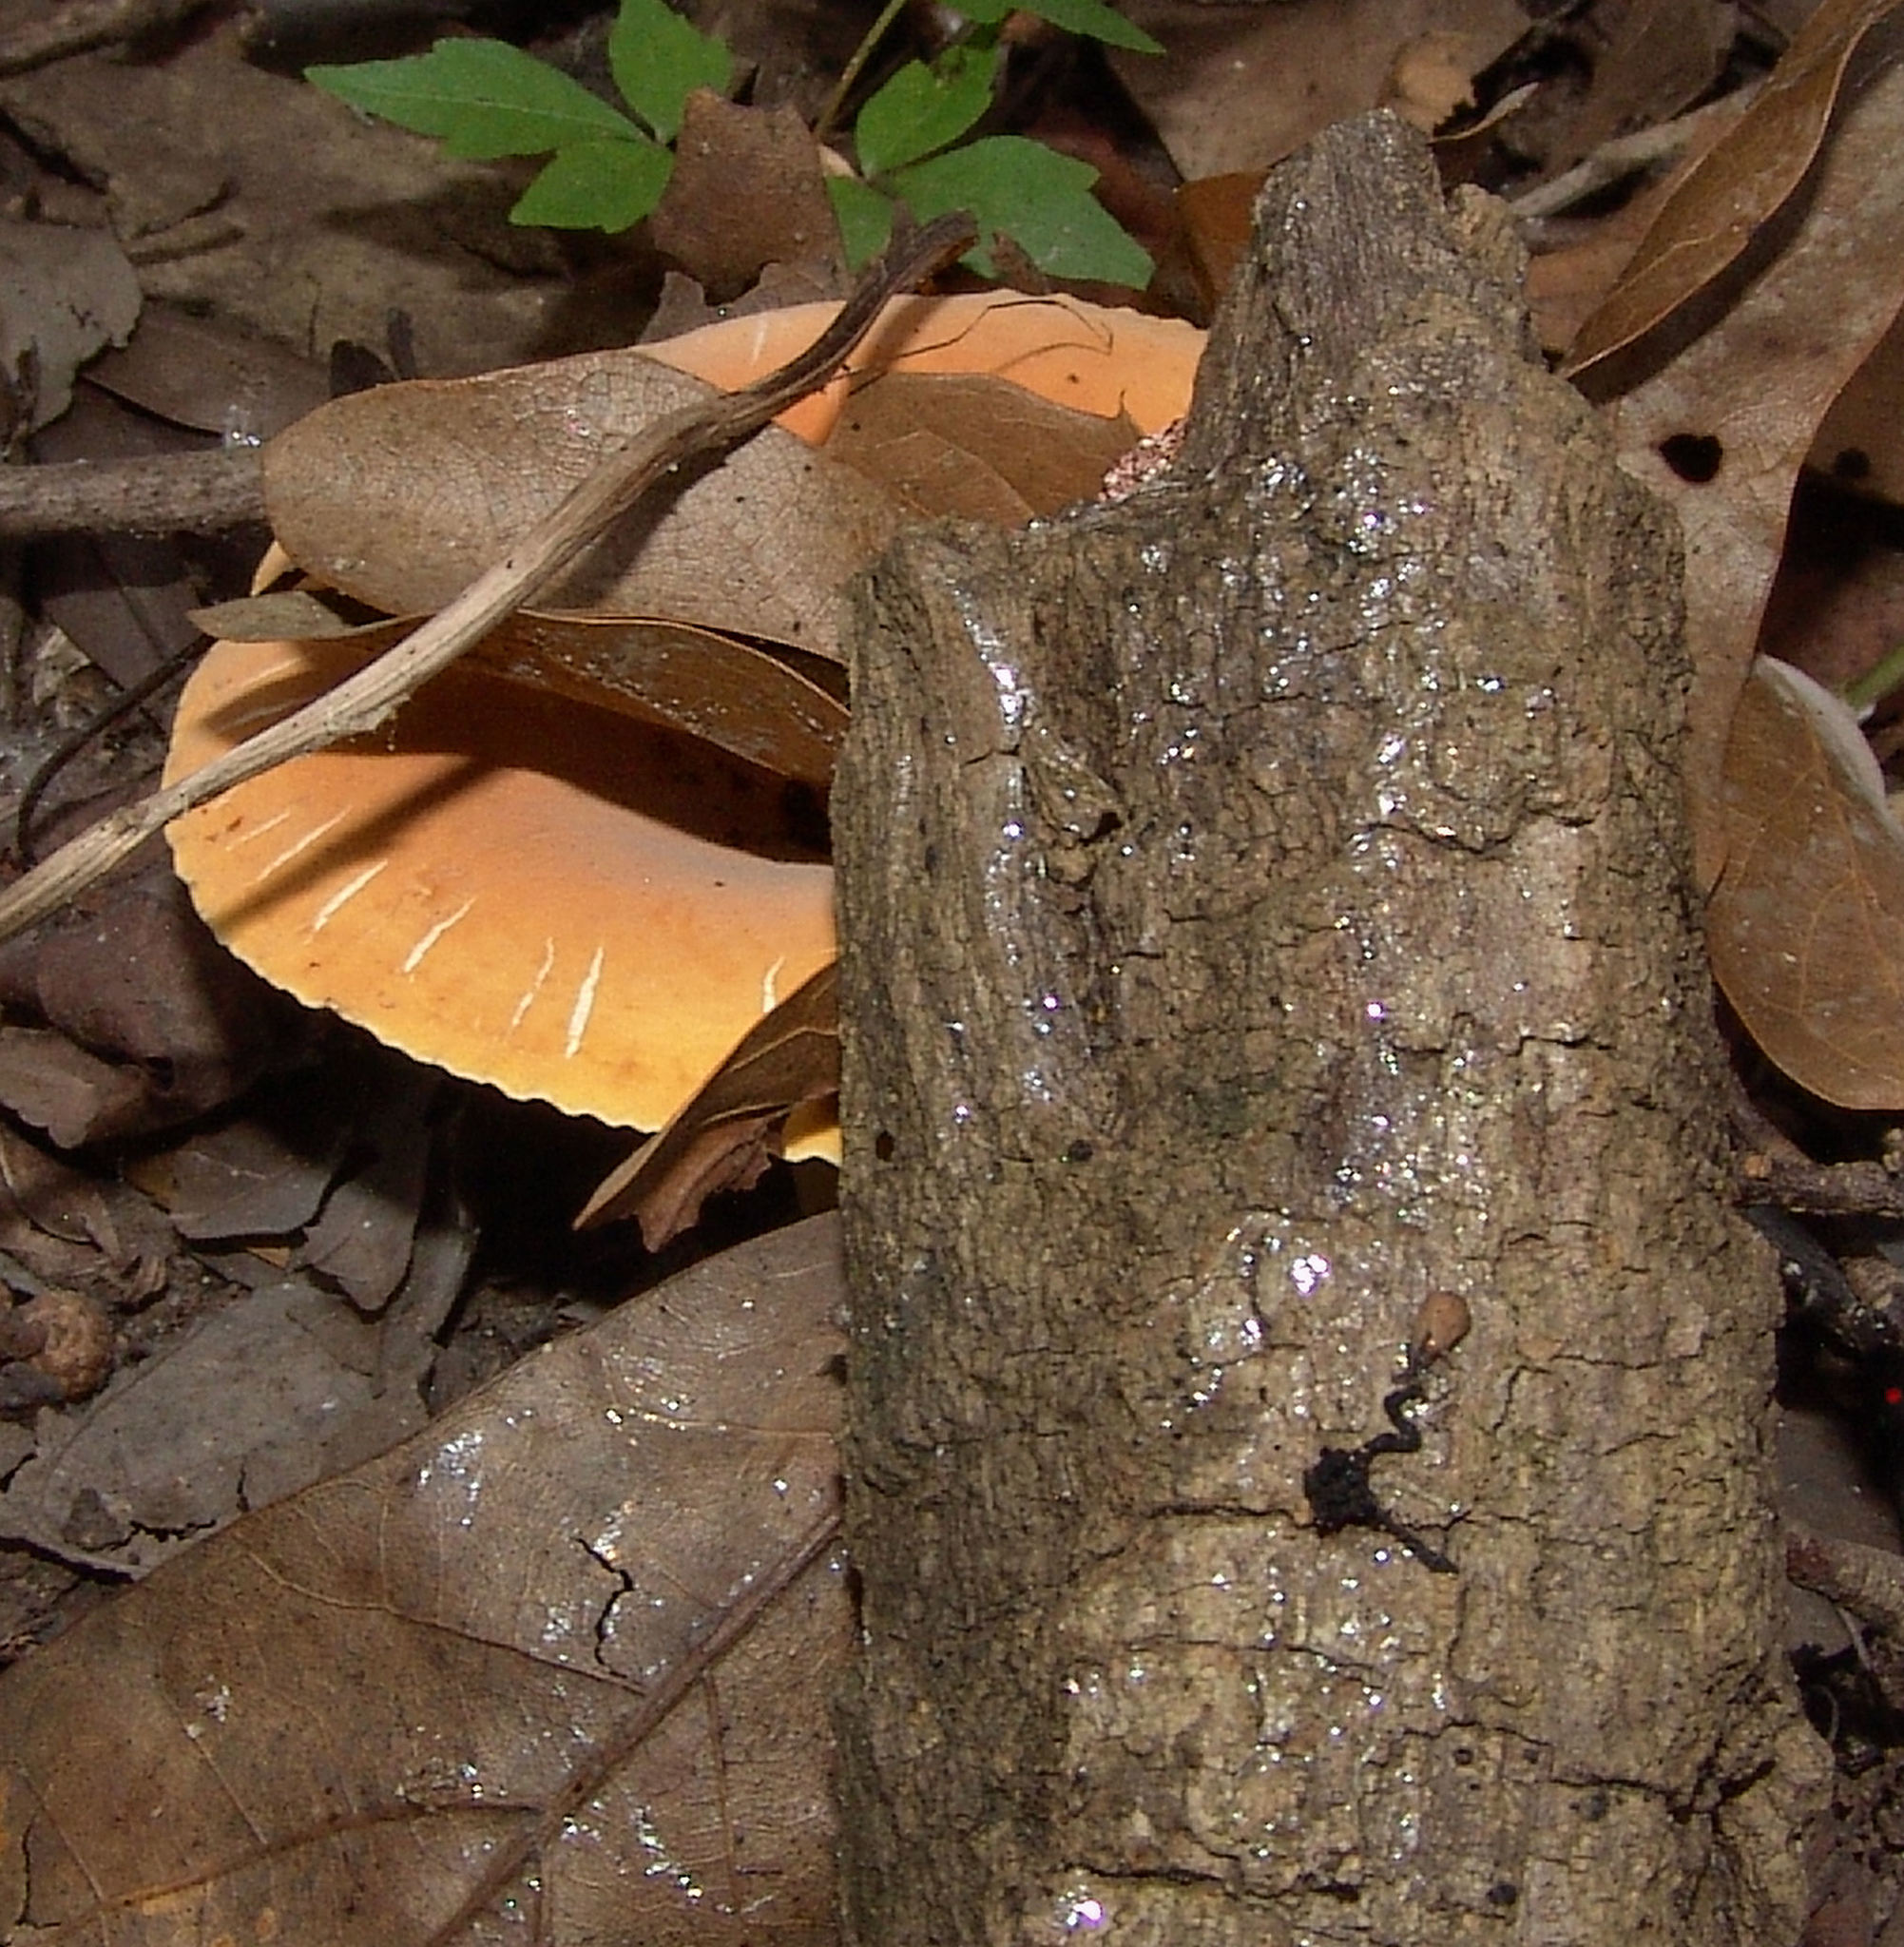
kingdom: Fungi
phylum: Basidiomycota
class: Agaricomycetes
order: Russulales
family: Russulaceae
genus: Lactarius
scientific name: Lactarius hygrophoroides
